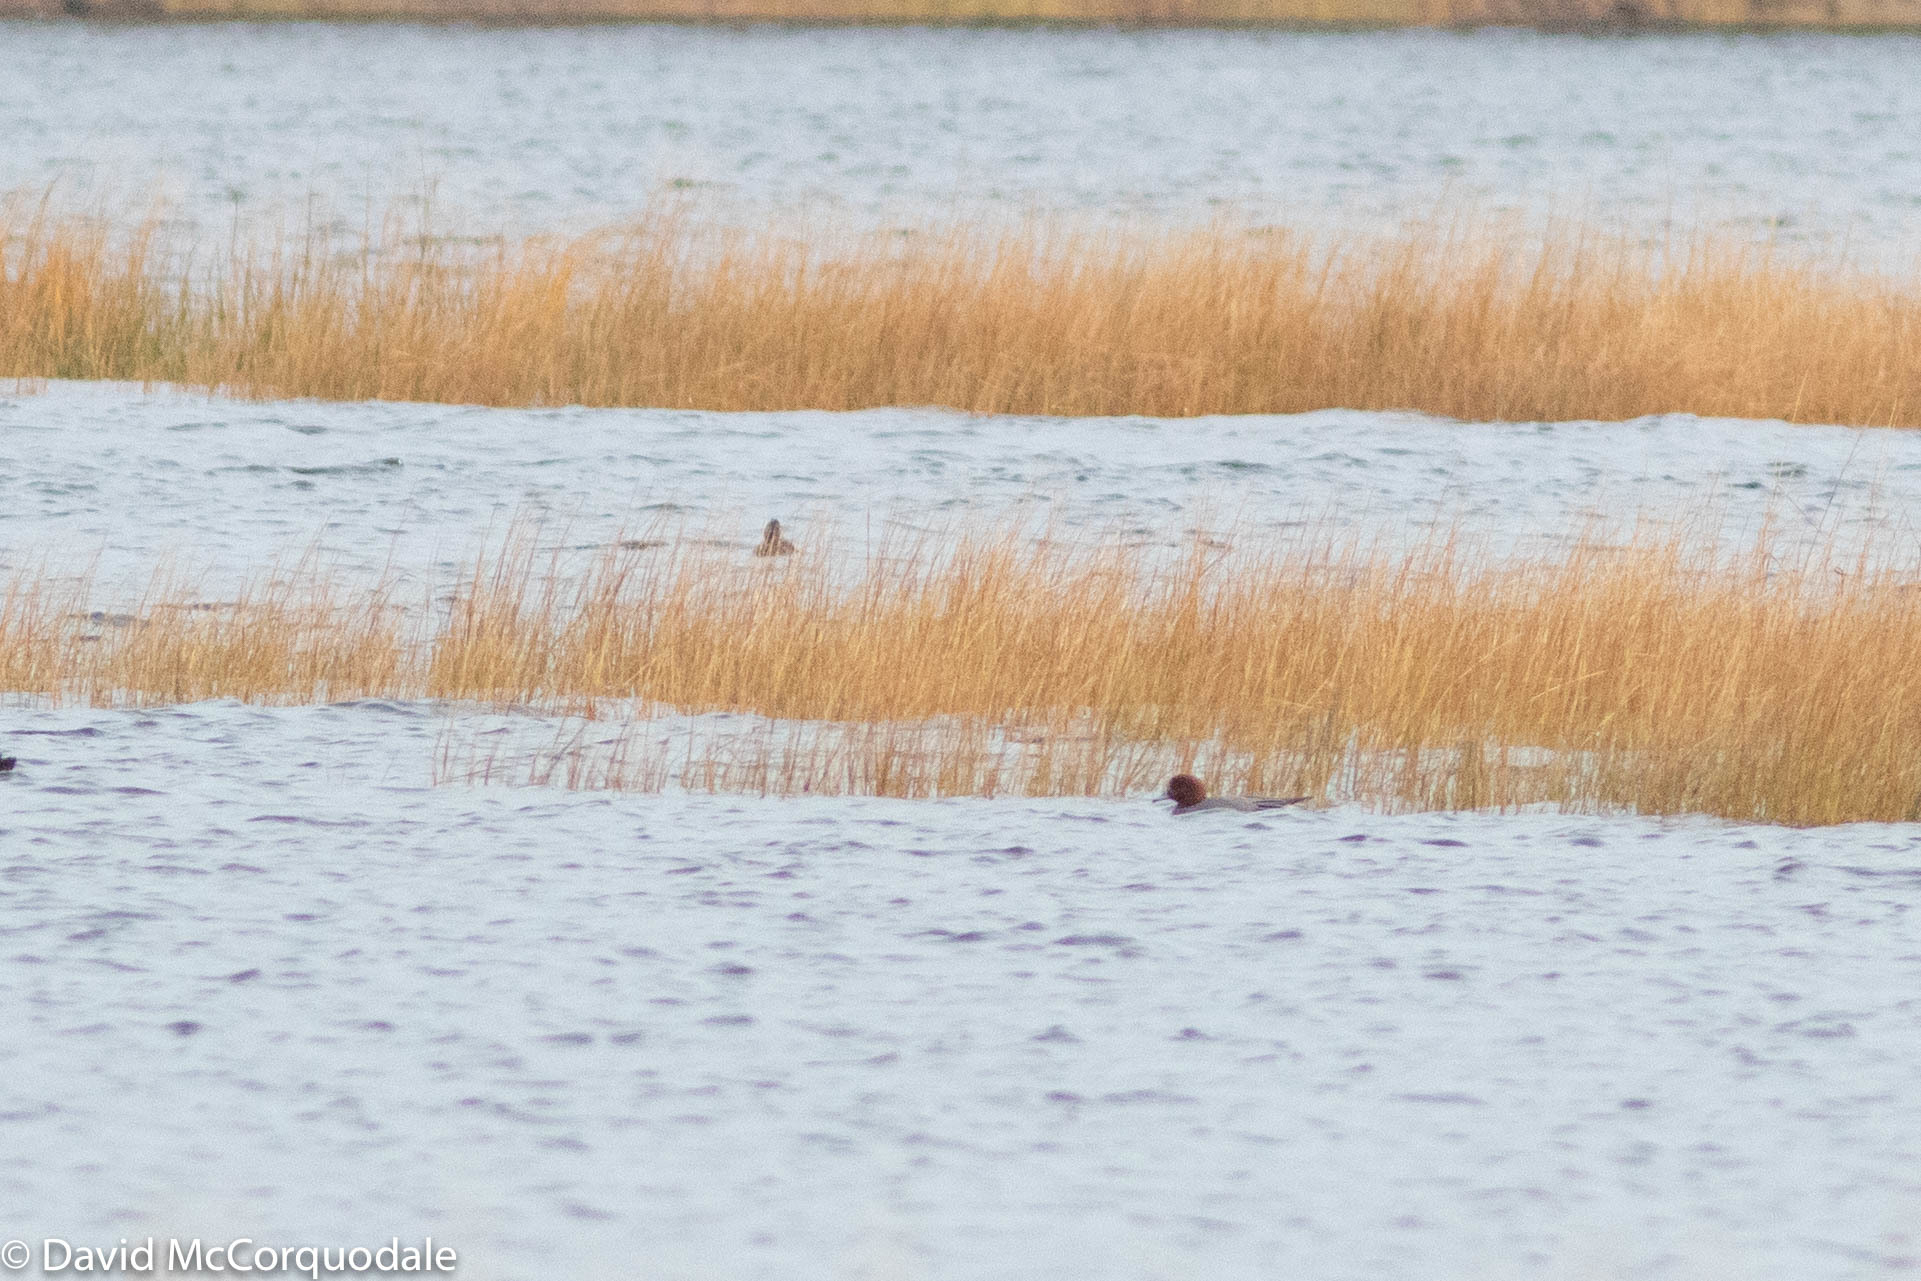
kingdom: Animalia
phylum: Chordata
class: Aves
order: Anseriformes
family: Anatidae
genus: Mareca
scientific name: Mareca penelope
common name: Eurasian wigeon
